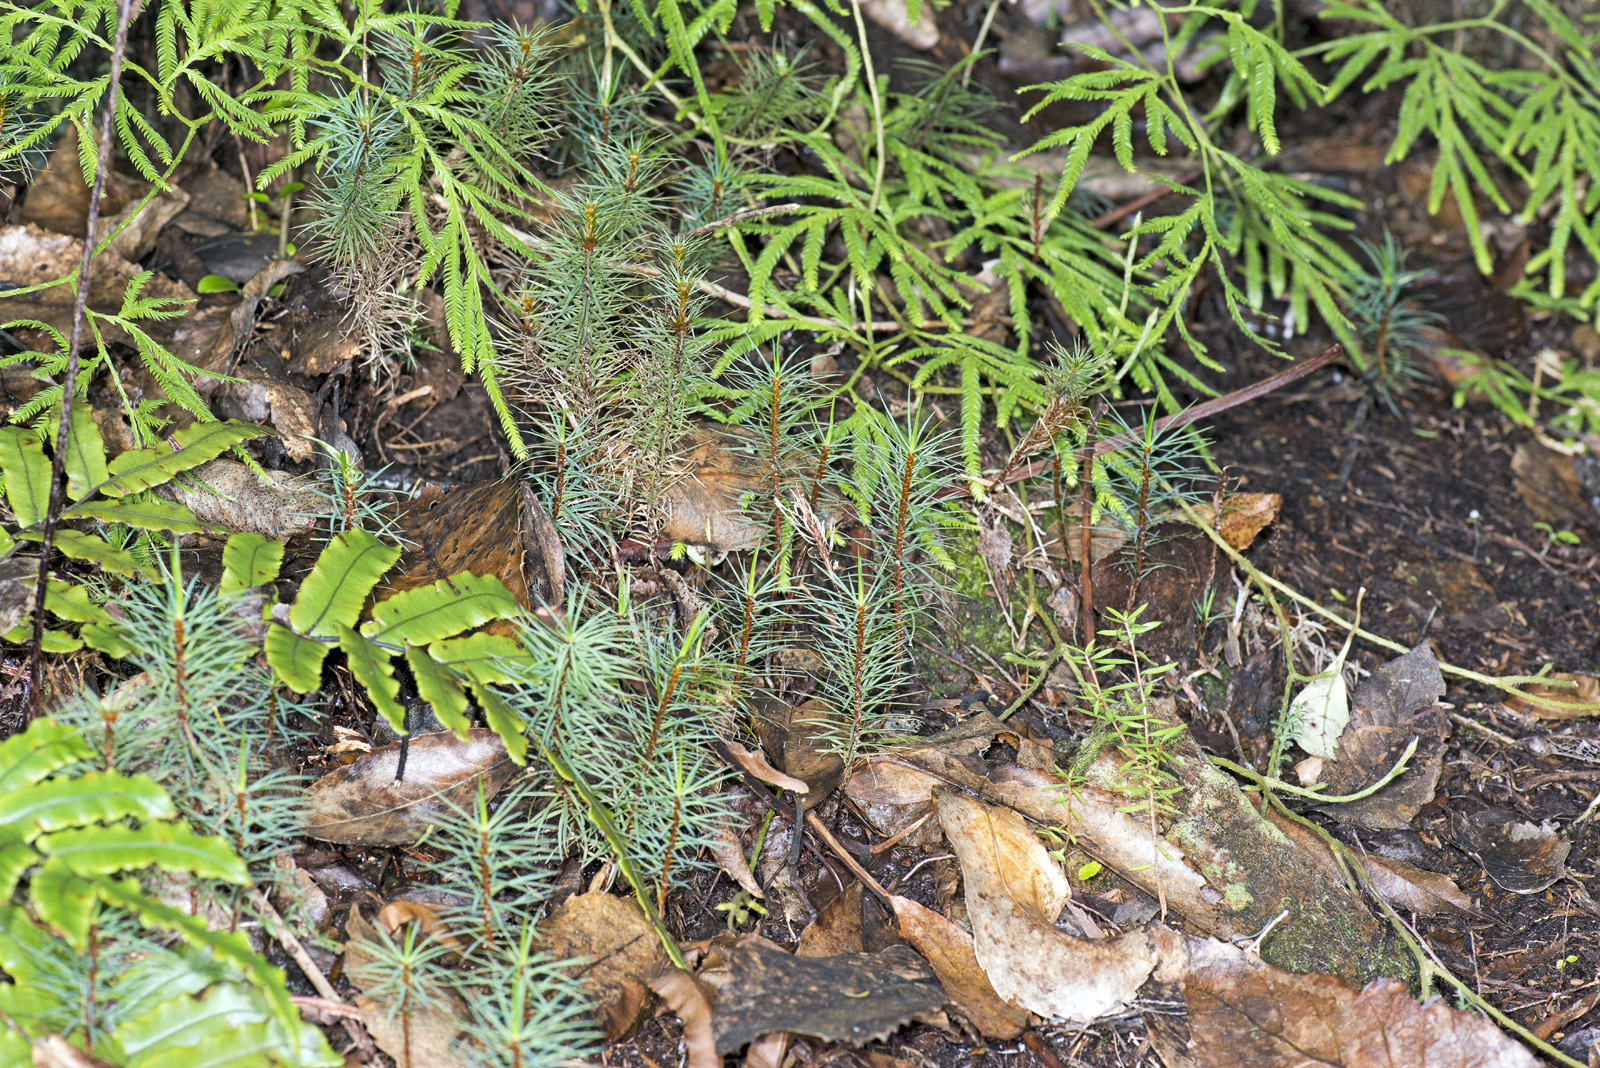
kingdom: Plantae
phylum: Bryophyta
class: Polytrichopsida
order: Polytrichales
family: Polytrichaceae
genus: Dawsonia
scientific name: Dawsonia superba
